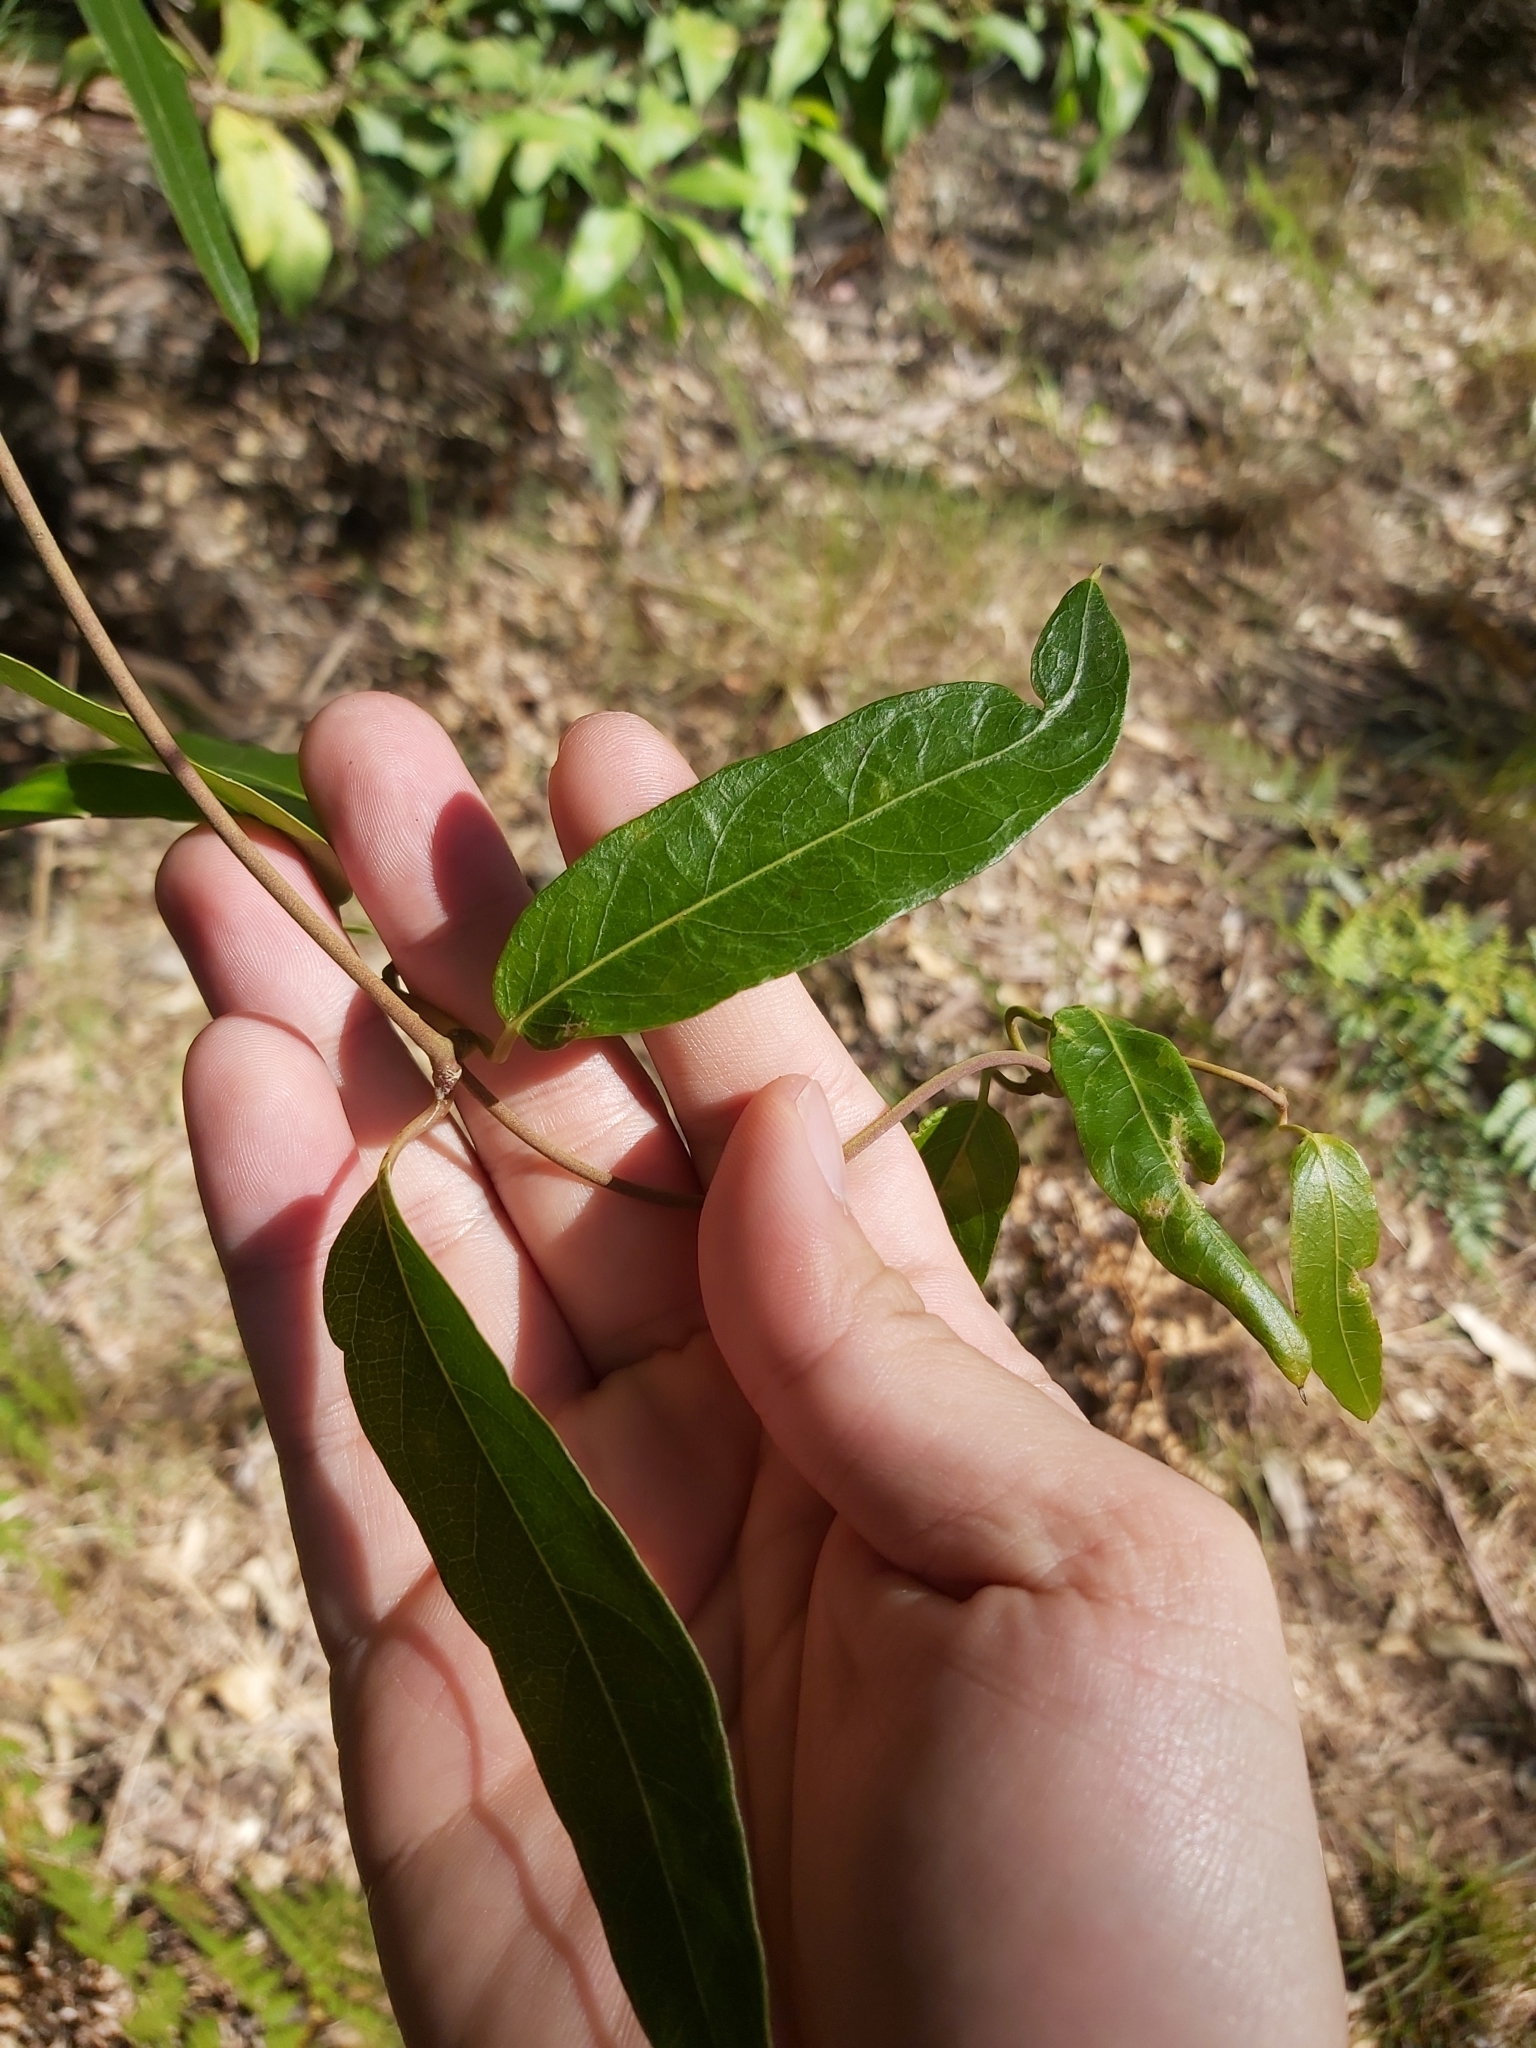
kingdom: Plantae
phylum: Tracheophyta
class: Magnoliopsida
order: Gentianales
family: Apocynaceae
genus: Parsonsia
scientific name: Parsonsia straminea
